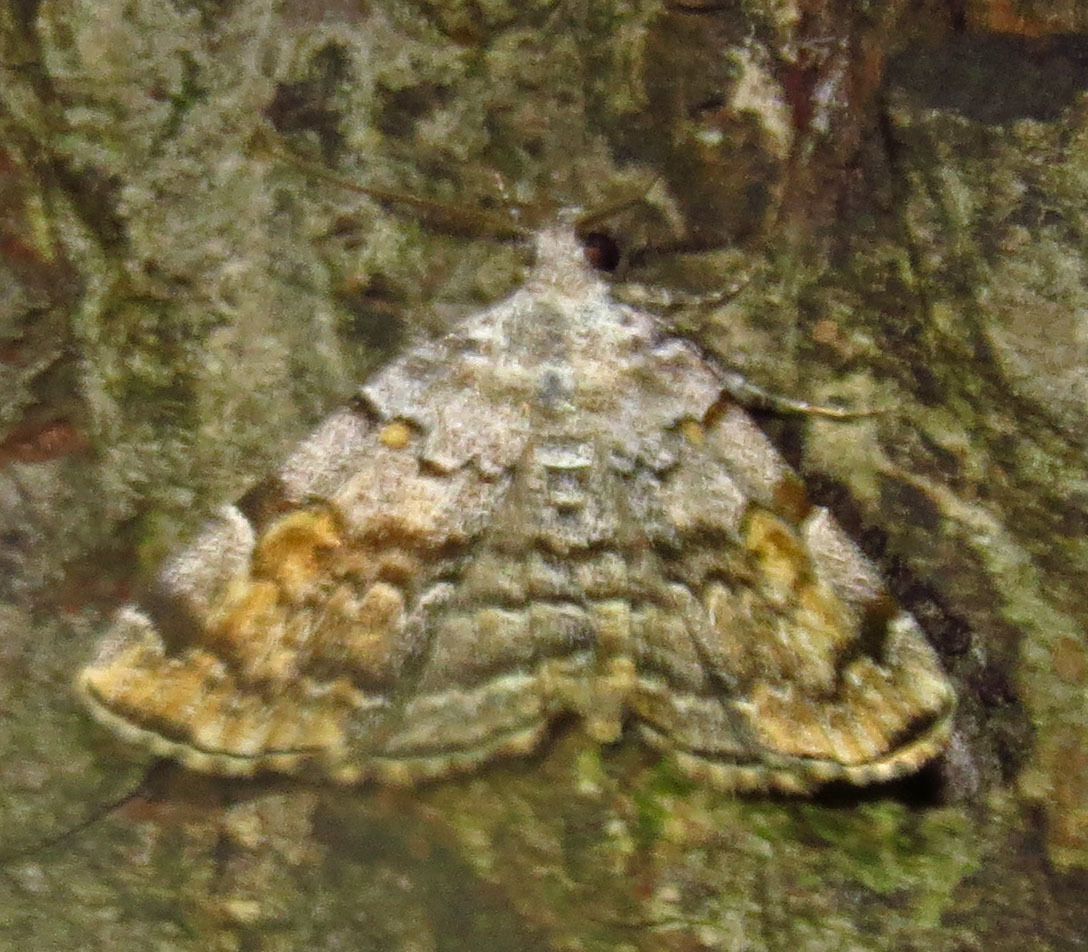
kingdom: Animalia
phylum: Arthropoda
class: Insecta
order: Lepidoptera
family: Erebidae
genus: Idia
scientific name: Idia americalis
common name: American idia moth
